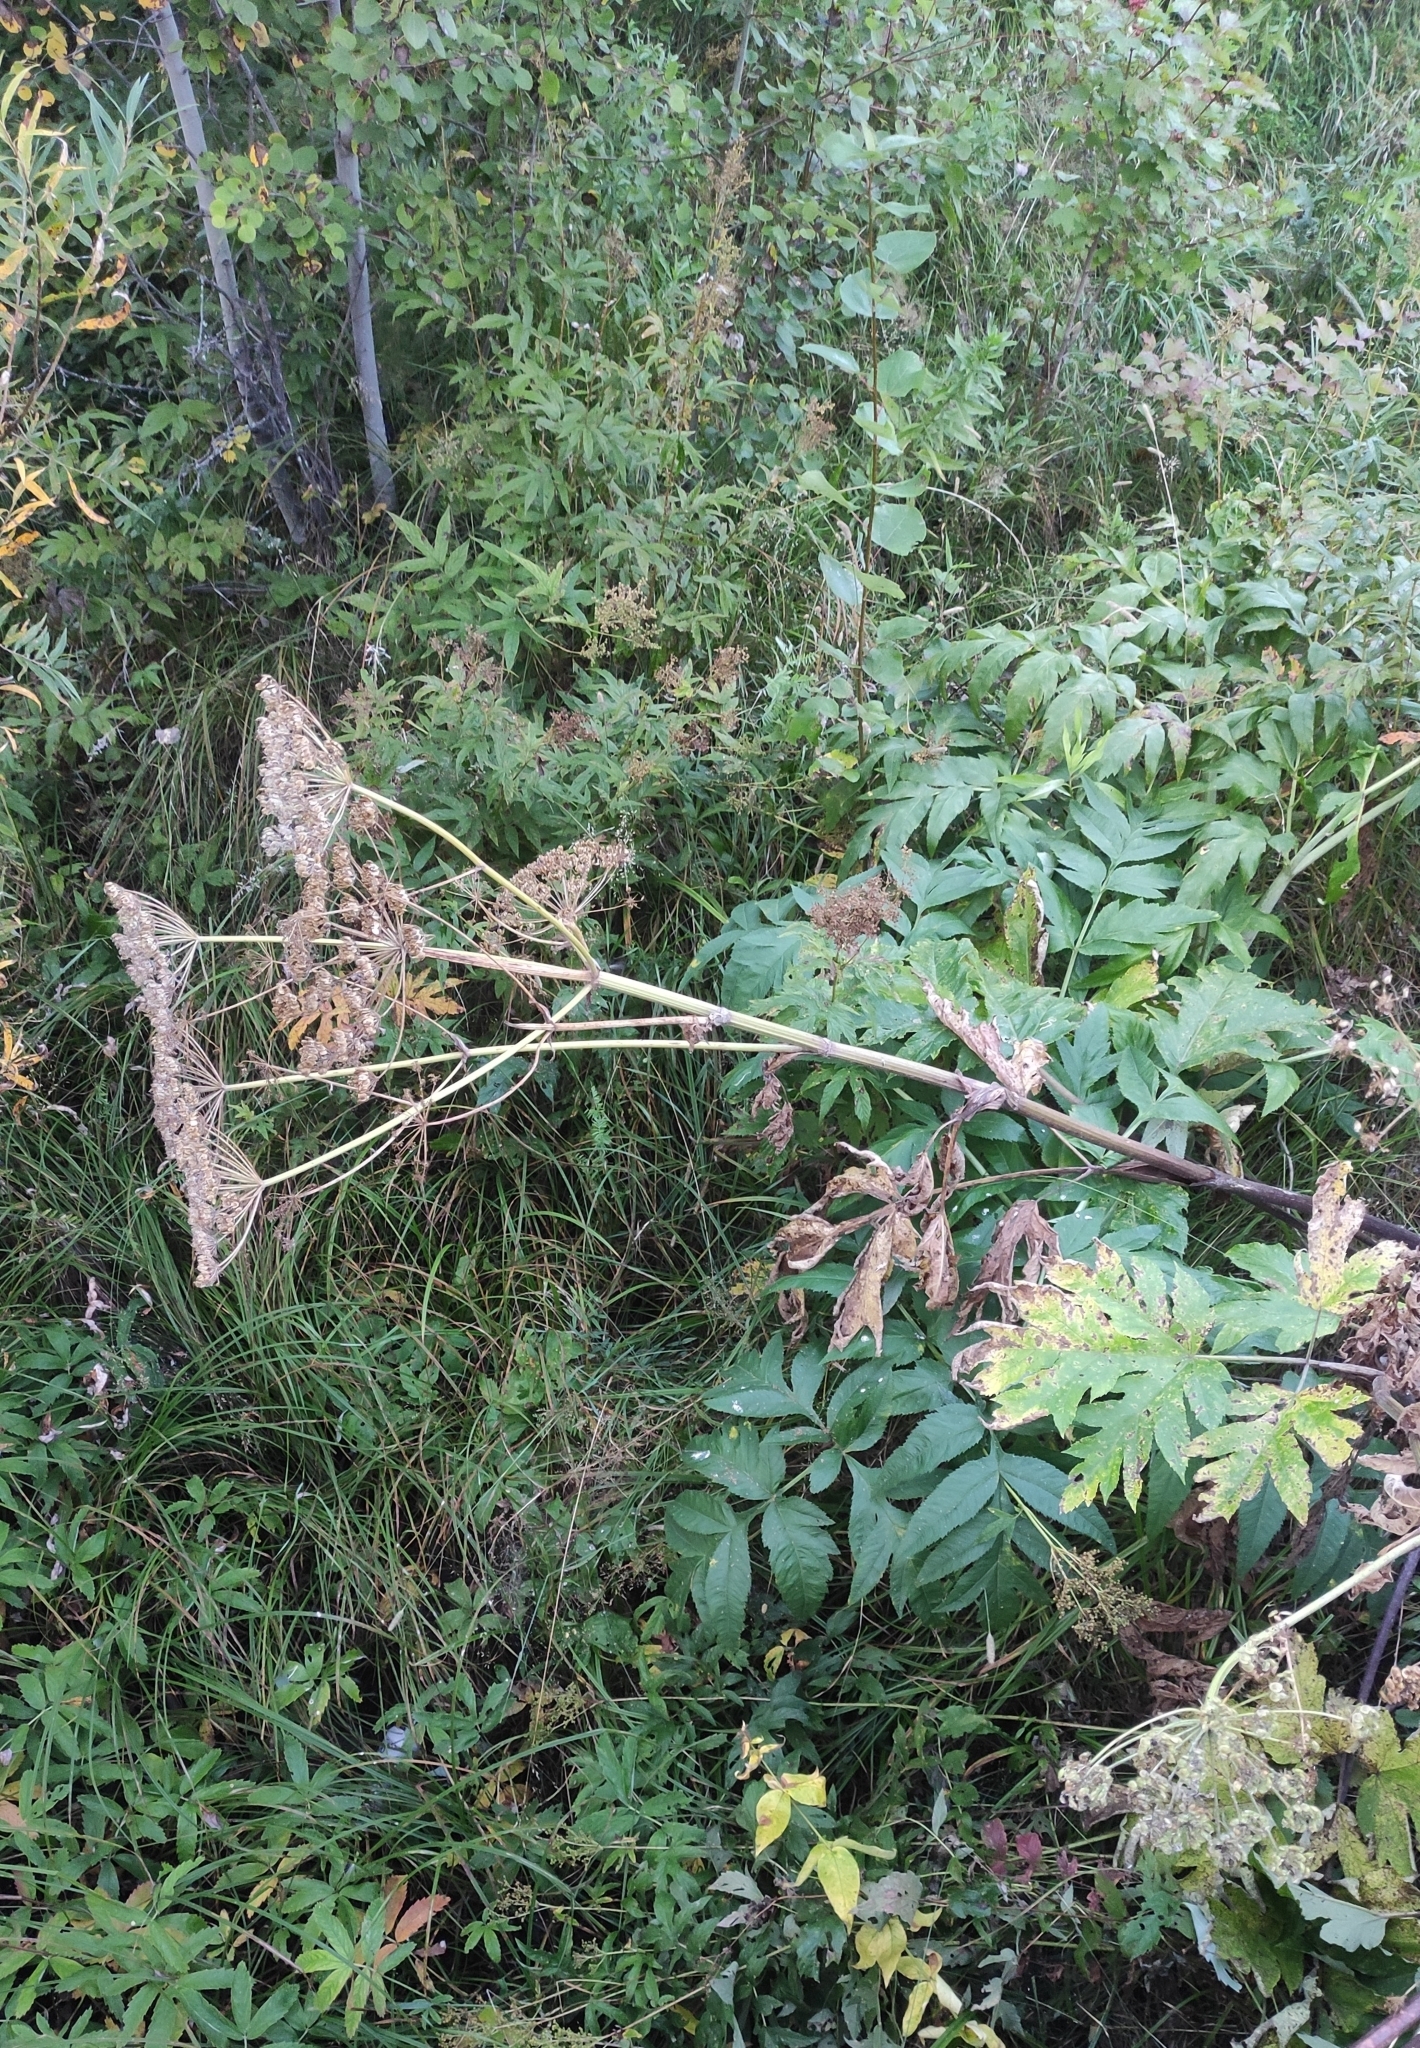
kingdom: Plantae
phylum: Tracheophyta
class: Magnoliopsida
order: Apiales
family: Apiaceae
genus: Heracleum
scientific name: Heracleum dissectum
